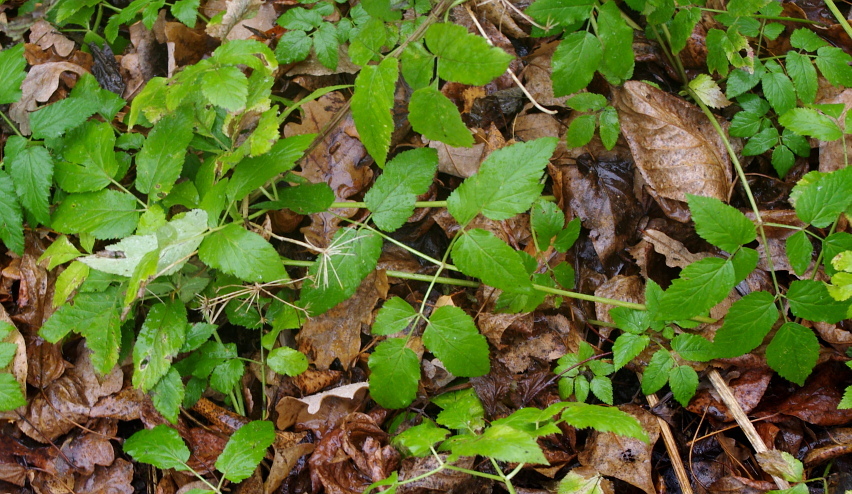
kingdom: Plantae
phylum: Tracheophyta
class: Magnoliopsida
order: Apiales
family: Apiaceae
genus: Aegopodium
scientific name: Aegopodium podagraria
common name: Ground-elder
